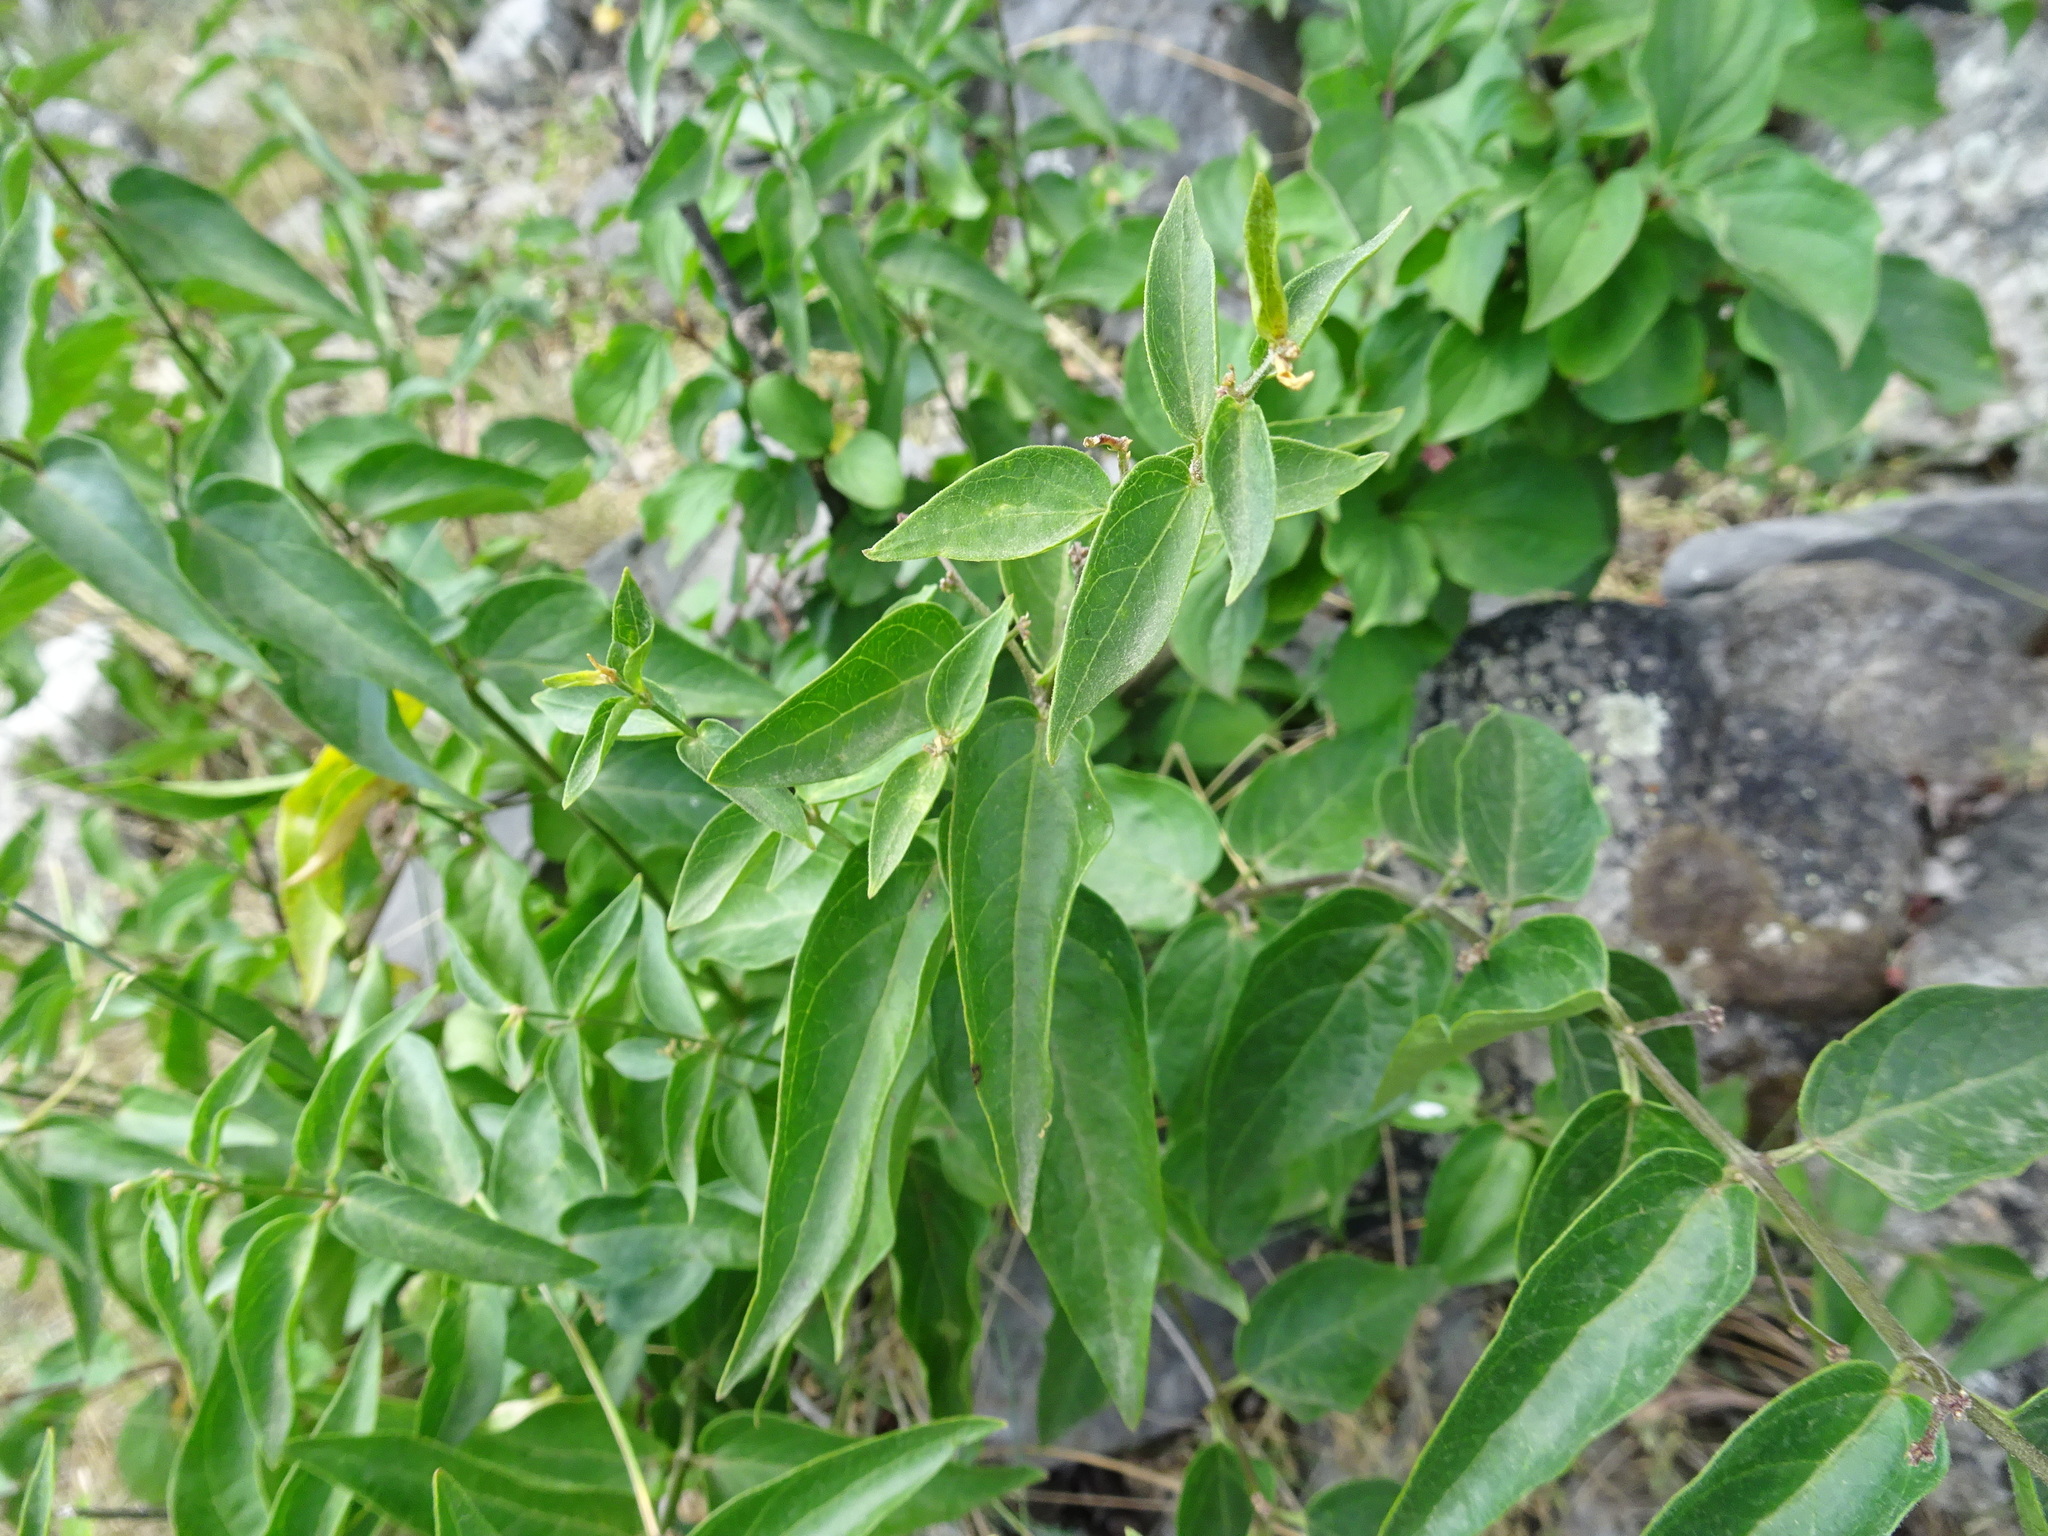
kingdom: Plantae
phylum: Tracheophyta
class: Magnoliopsida
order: Gentianales
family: Apocynaceae
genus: Vincetoxicum
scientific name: Vincetoxicum hirundinaria
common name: White swallowwort
